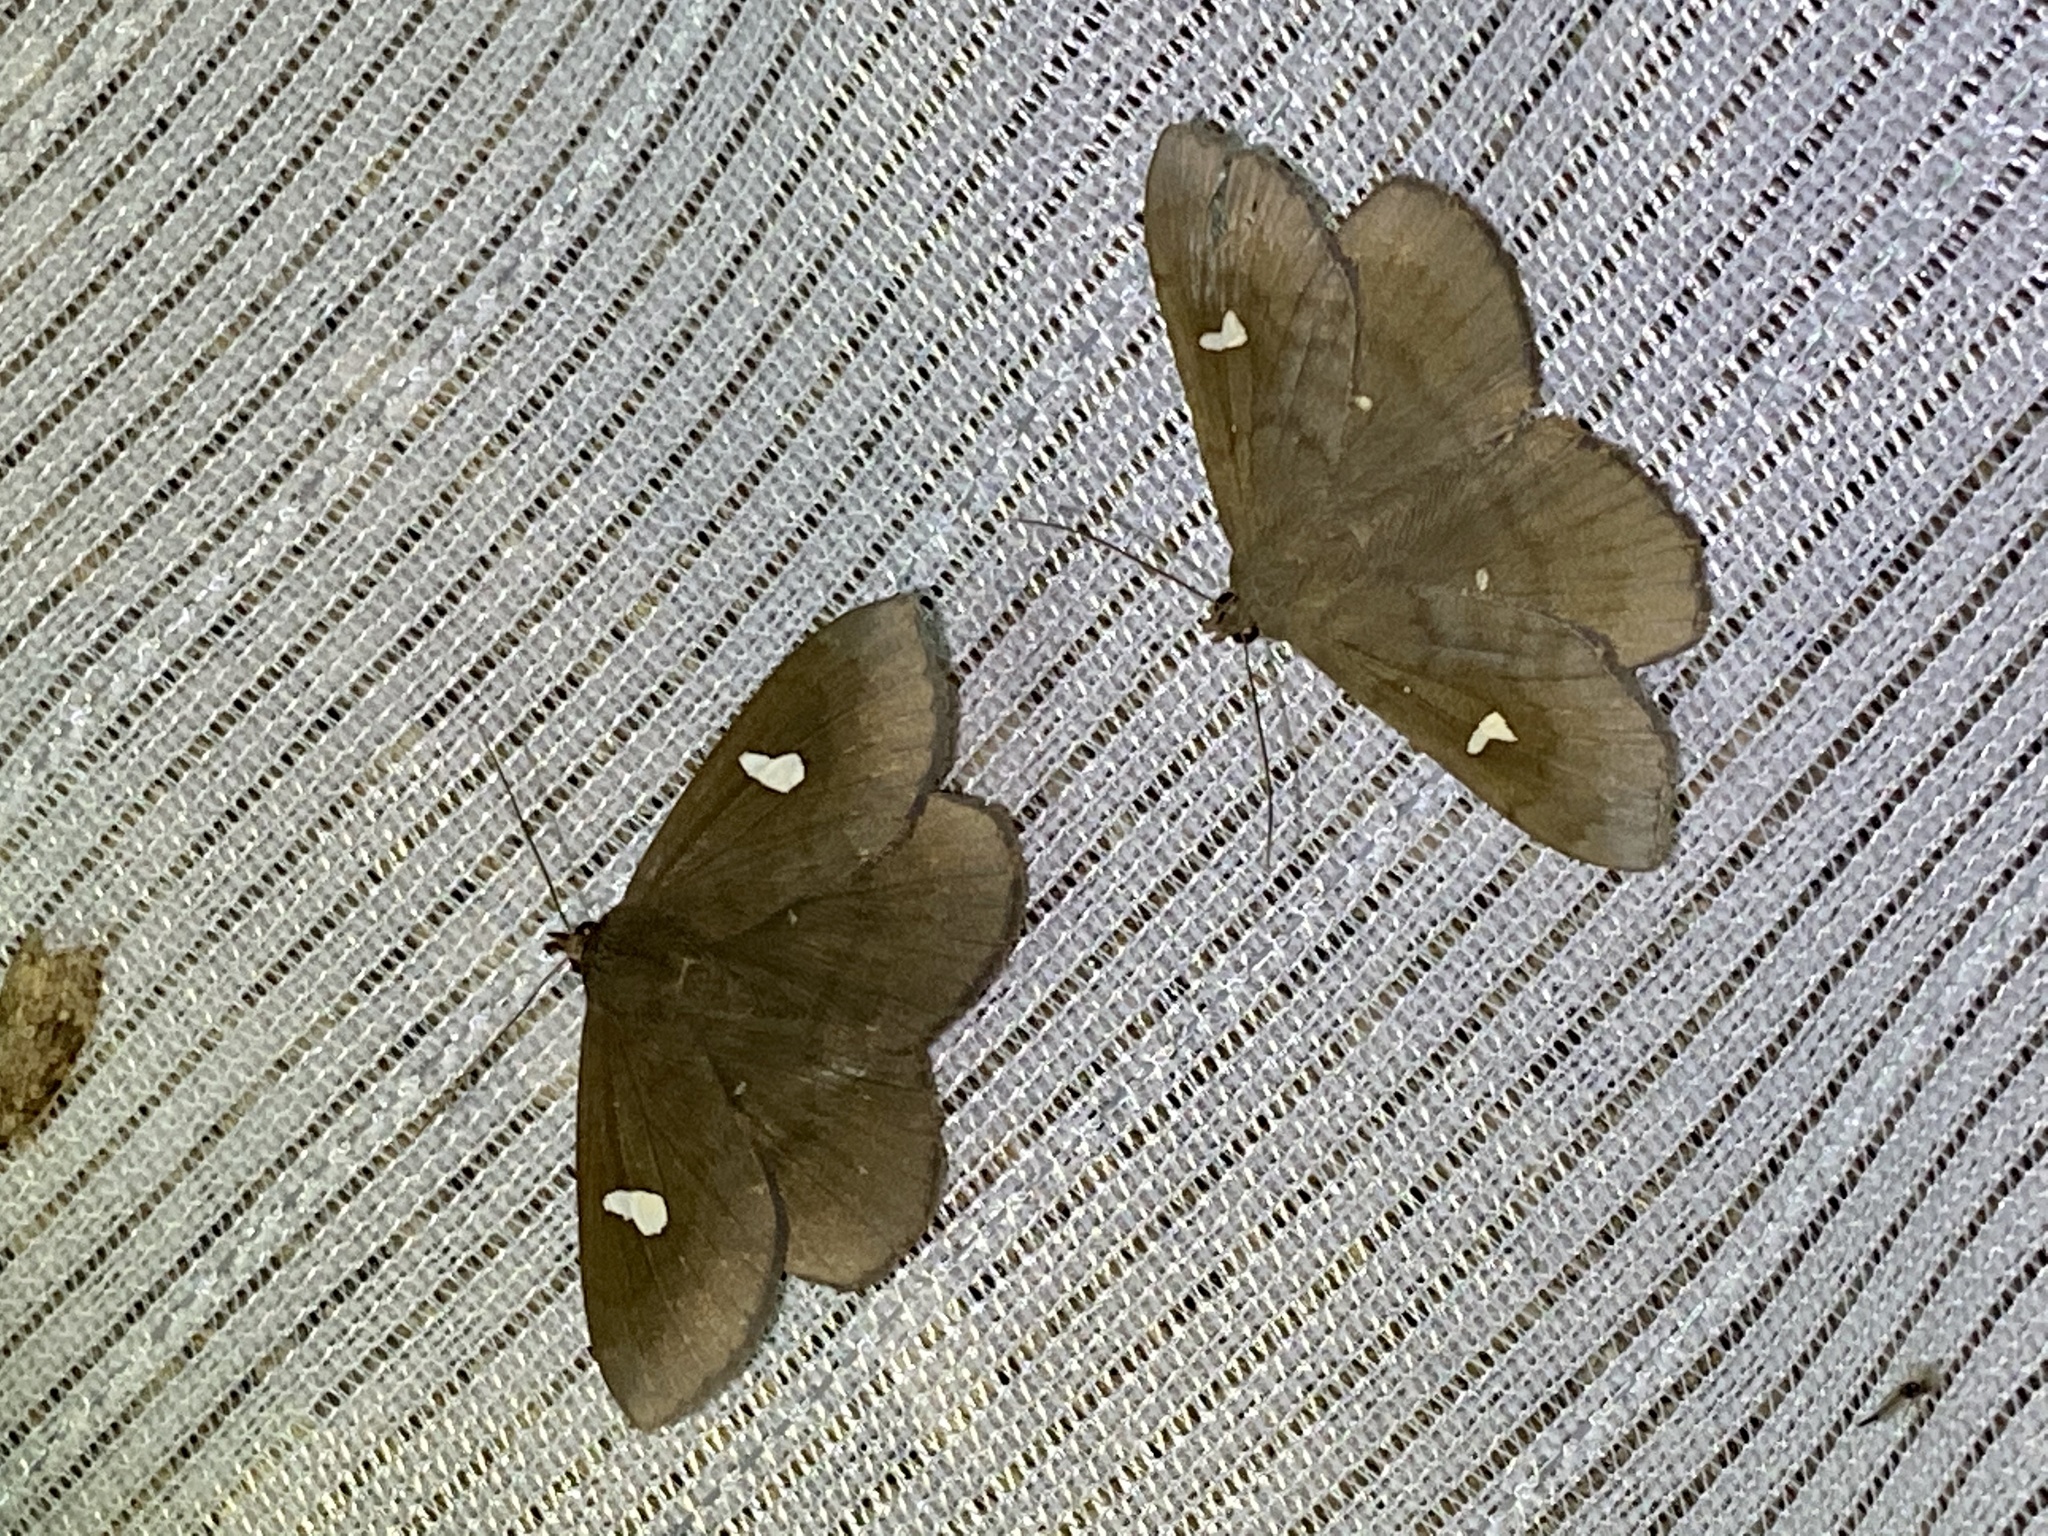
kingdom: Animalia
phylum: Arthropoda
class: Insecta
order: Lepidoptera
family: Erebidae
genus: Edessena
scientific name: Edessena hamada
